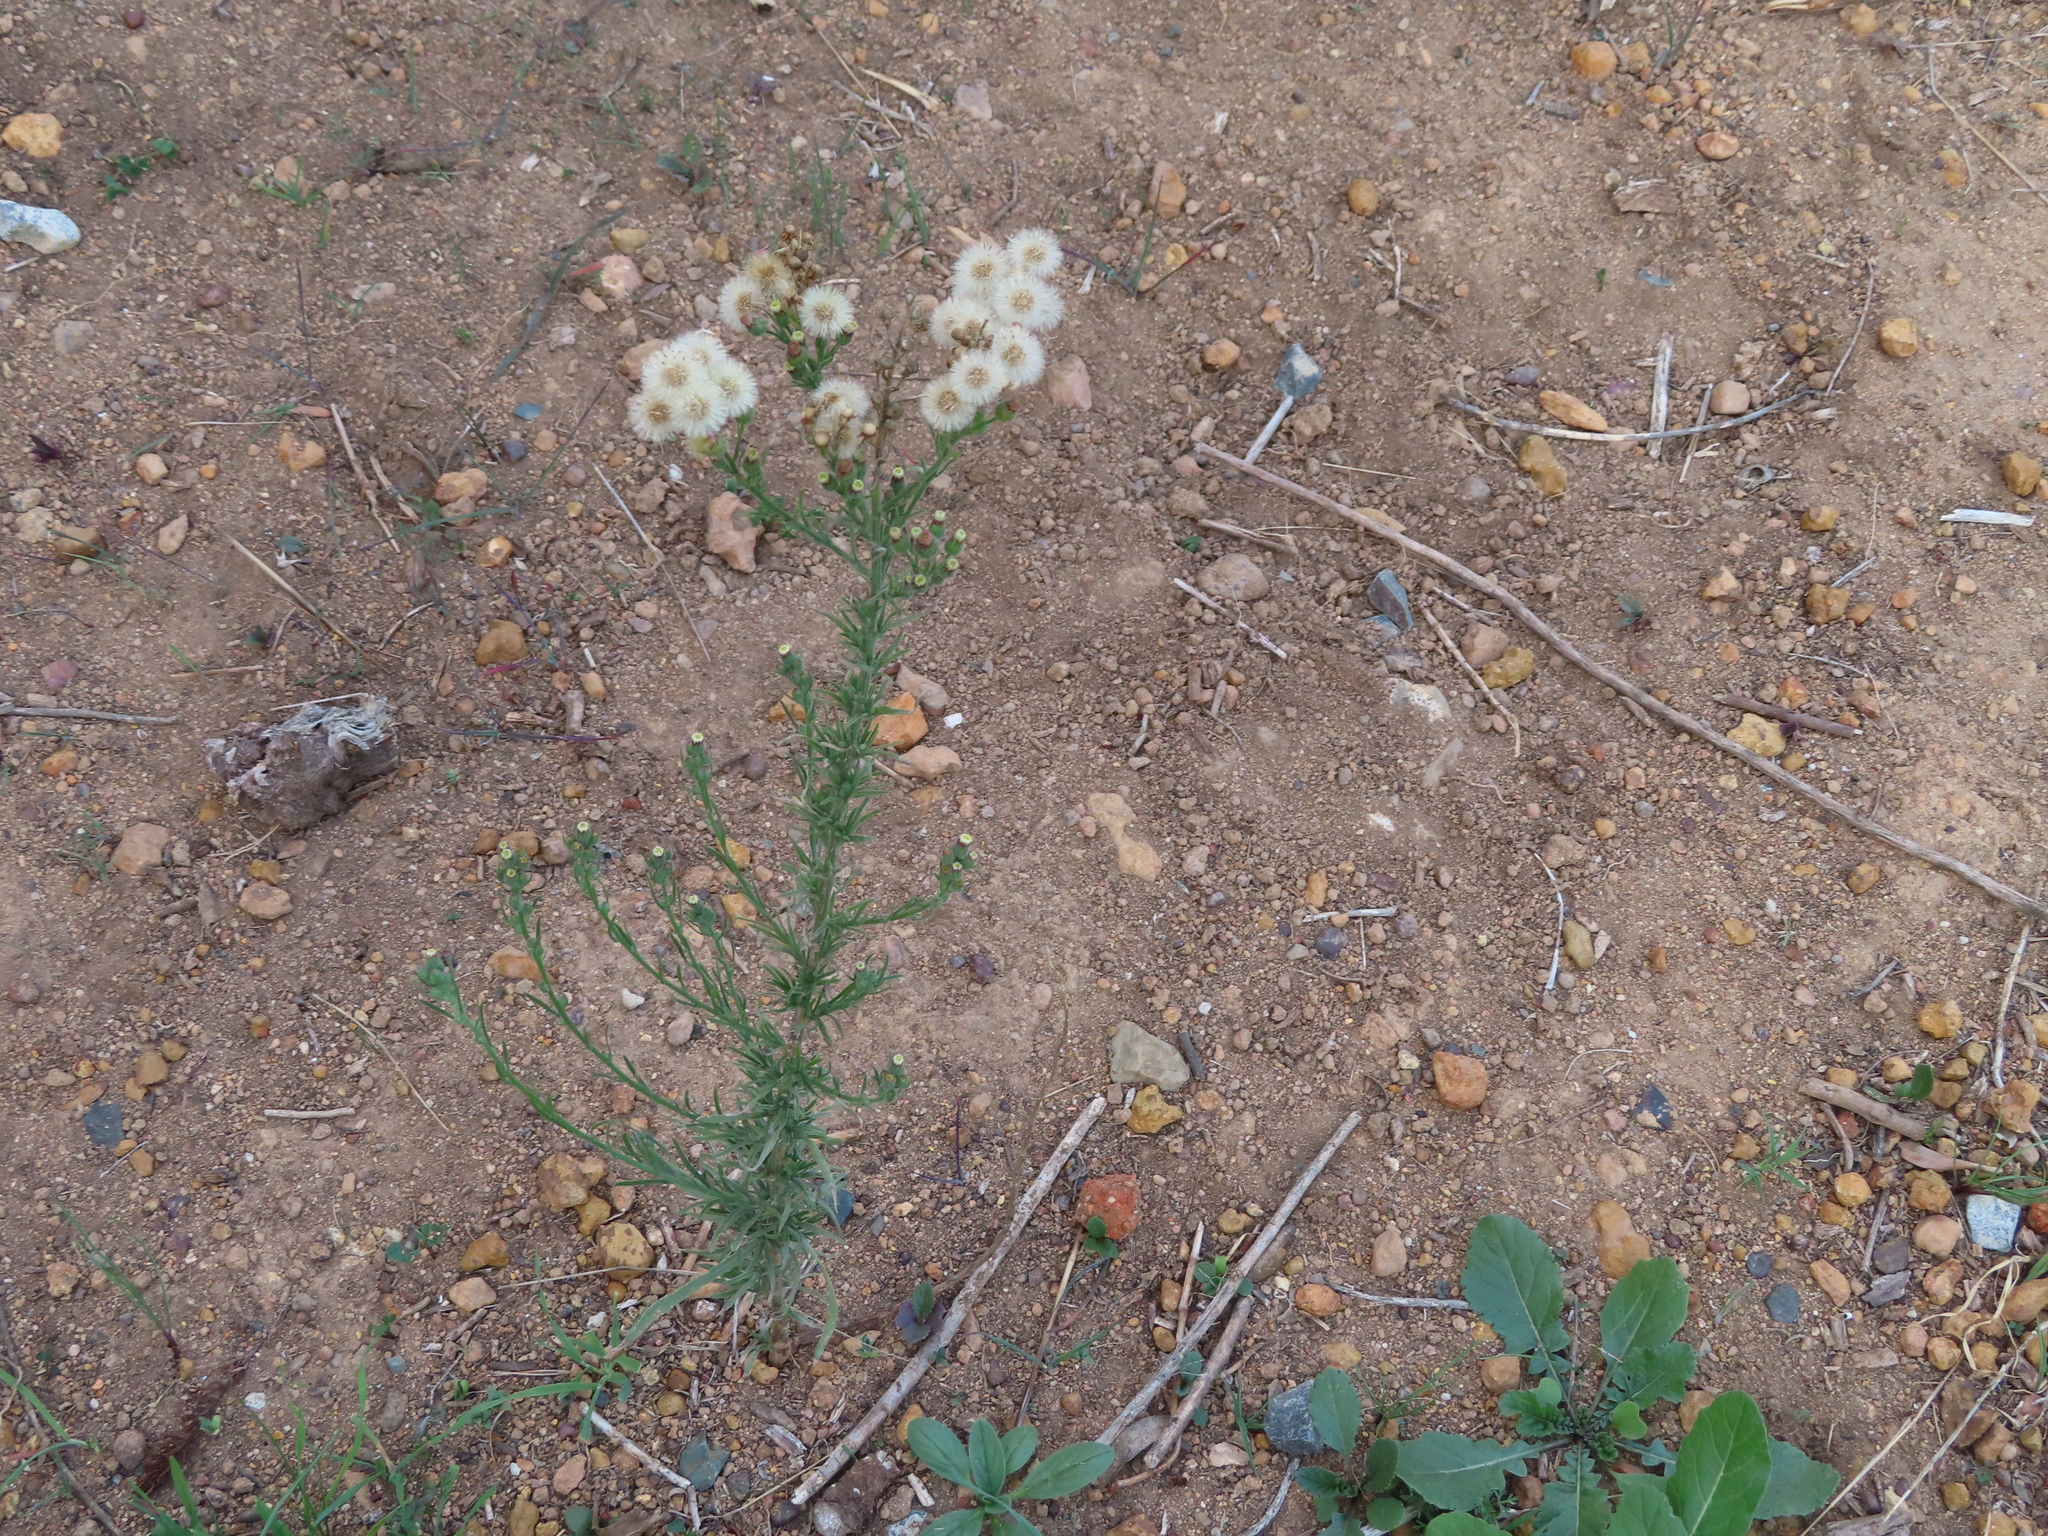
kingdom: Plantae
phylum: Tracheophyta
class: Magnoliopsida
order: Asterales
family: Asteraceae
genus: Erigeron
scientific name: Erigeron bonariensis
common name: Argentine fleabane
